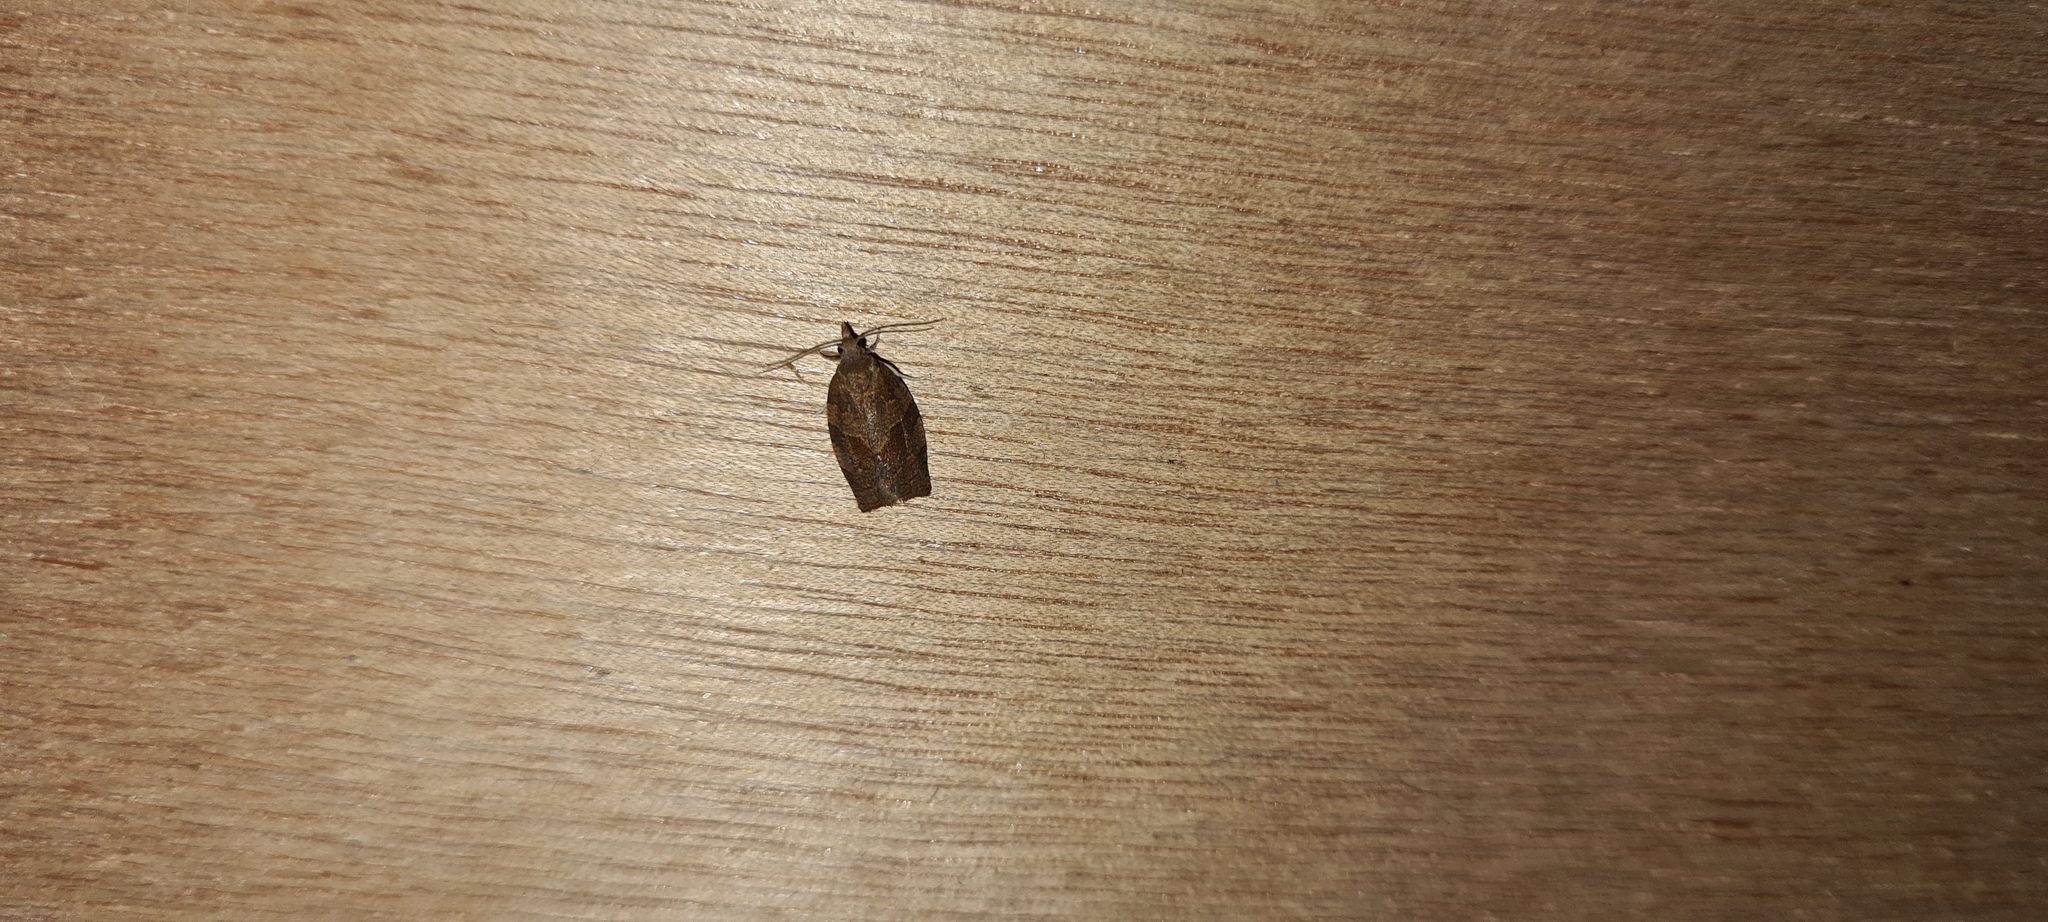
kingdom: Animalia
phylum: Arthropoda
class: Insecta
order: Lepidoptera
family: Tortricidae
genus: Pandemis
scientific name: Pandemis heparana
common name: Dark fruit-tree tortrix
